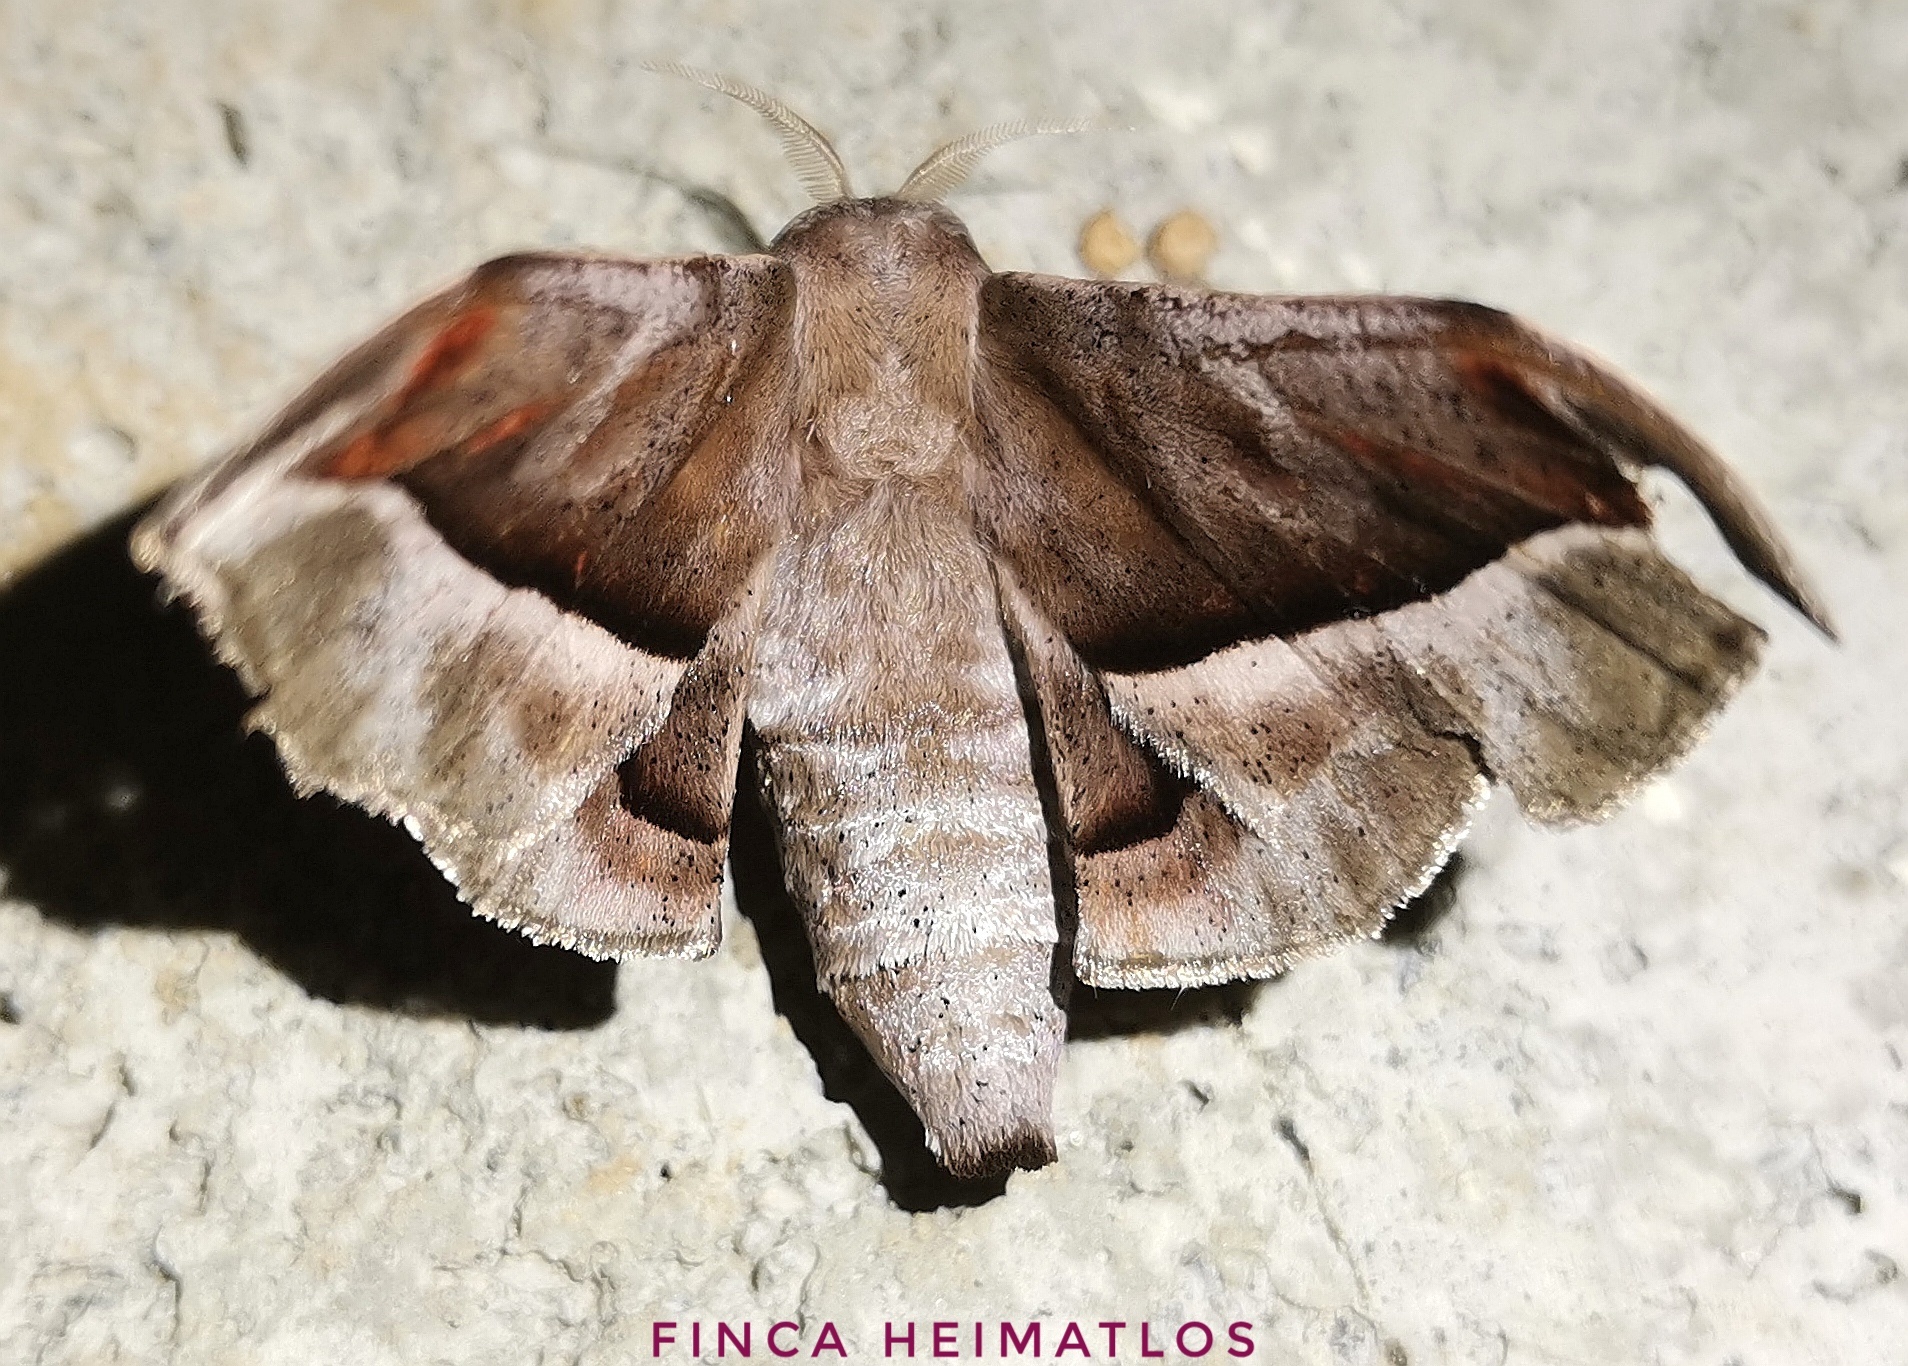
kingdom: Animalia
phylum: Arthropoda
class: Insecta
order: Lepidoptera
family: Mimallonidae
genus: Menevia
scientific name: Menevia vulgaris
